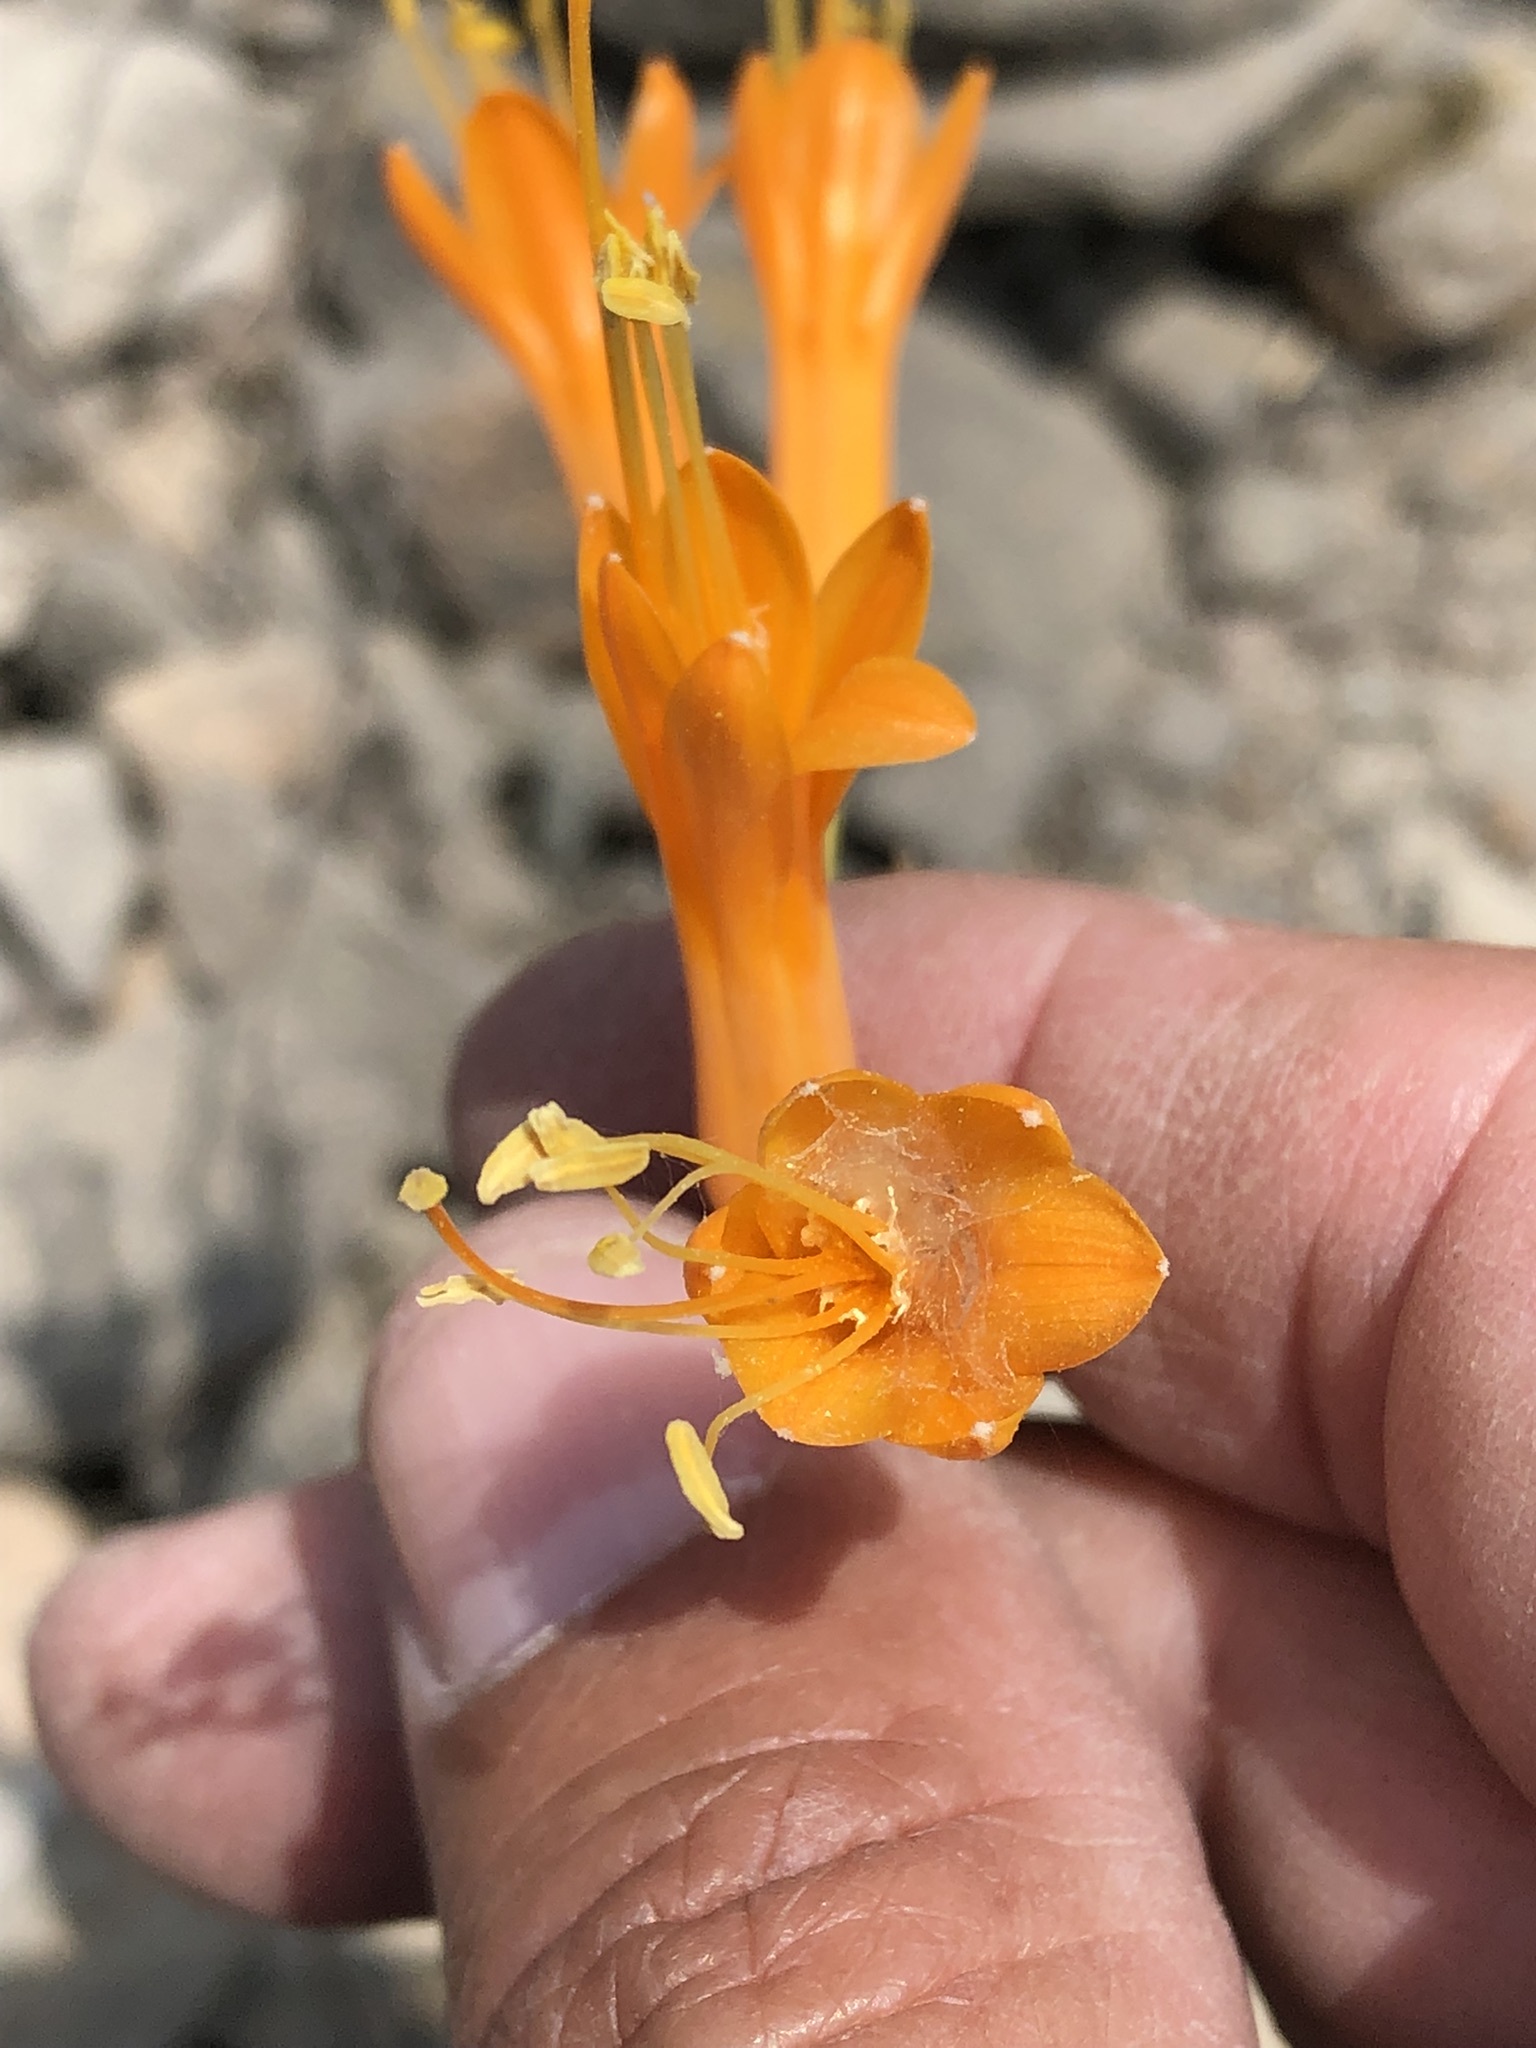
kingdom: Plantae
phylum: Tracheophyta
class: Liliopsida
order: Asparagales
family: Amaryllidaceae
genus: Stenomesson
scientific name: Stenomesson flavum
